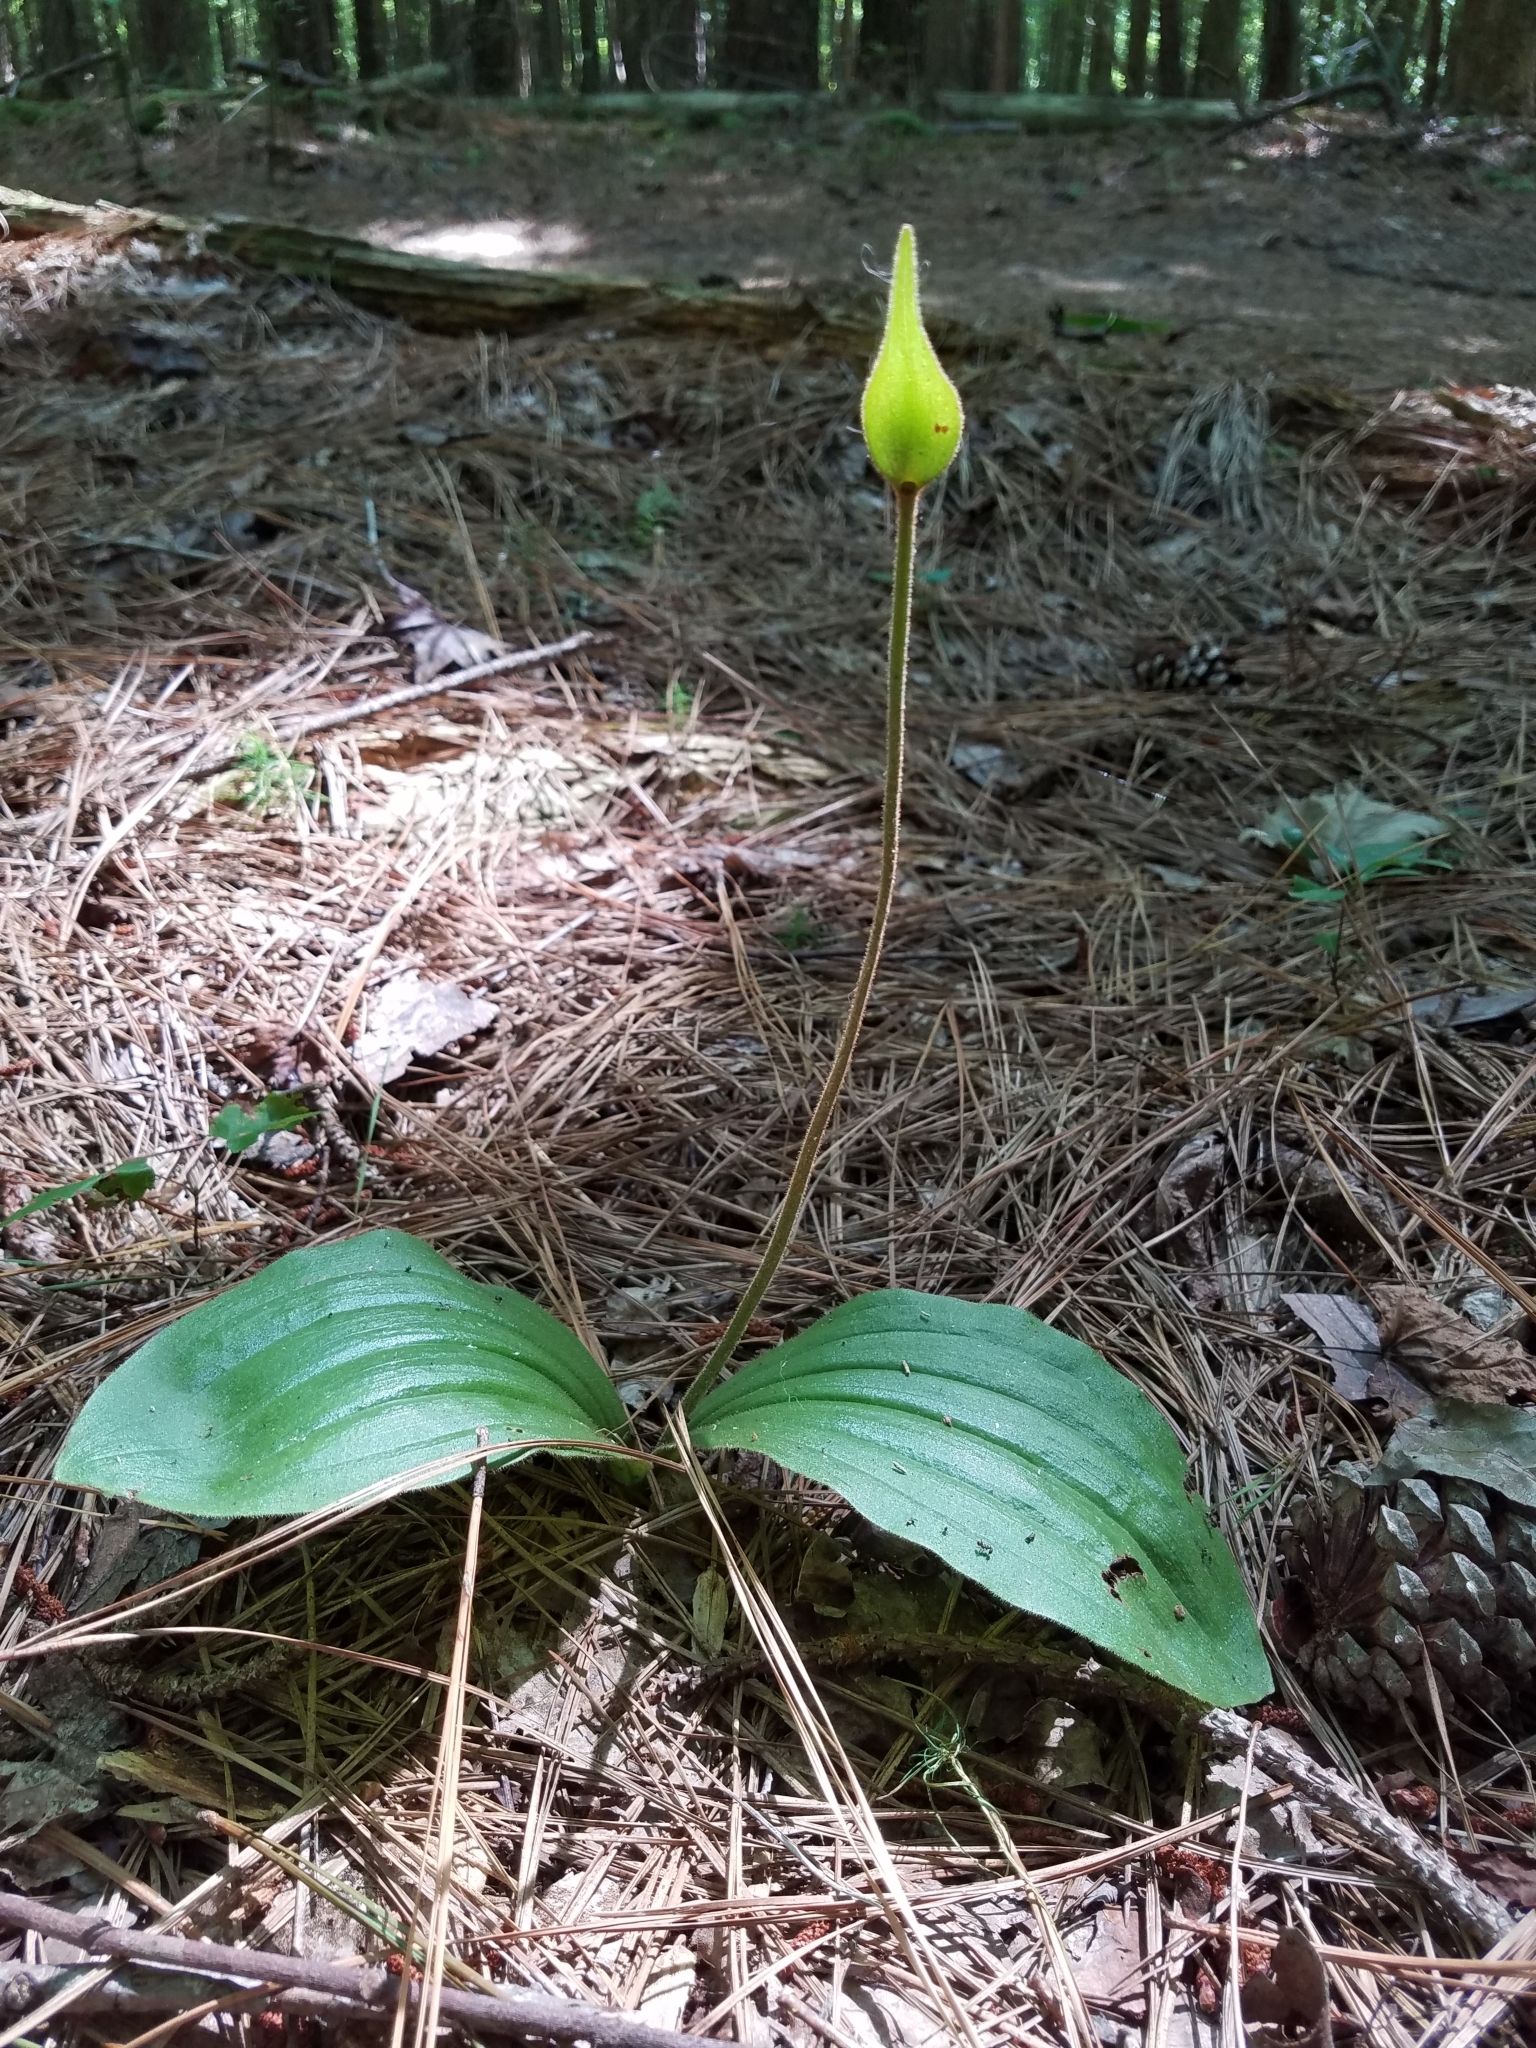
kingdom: Plantae
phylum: Tracheophyta
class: Liliopsida
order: Asparagales
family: Orchidaceae
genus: Cypripedium
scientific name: Cypripedium acaule
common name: Pink lady's-slipper
